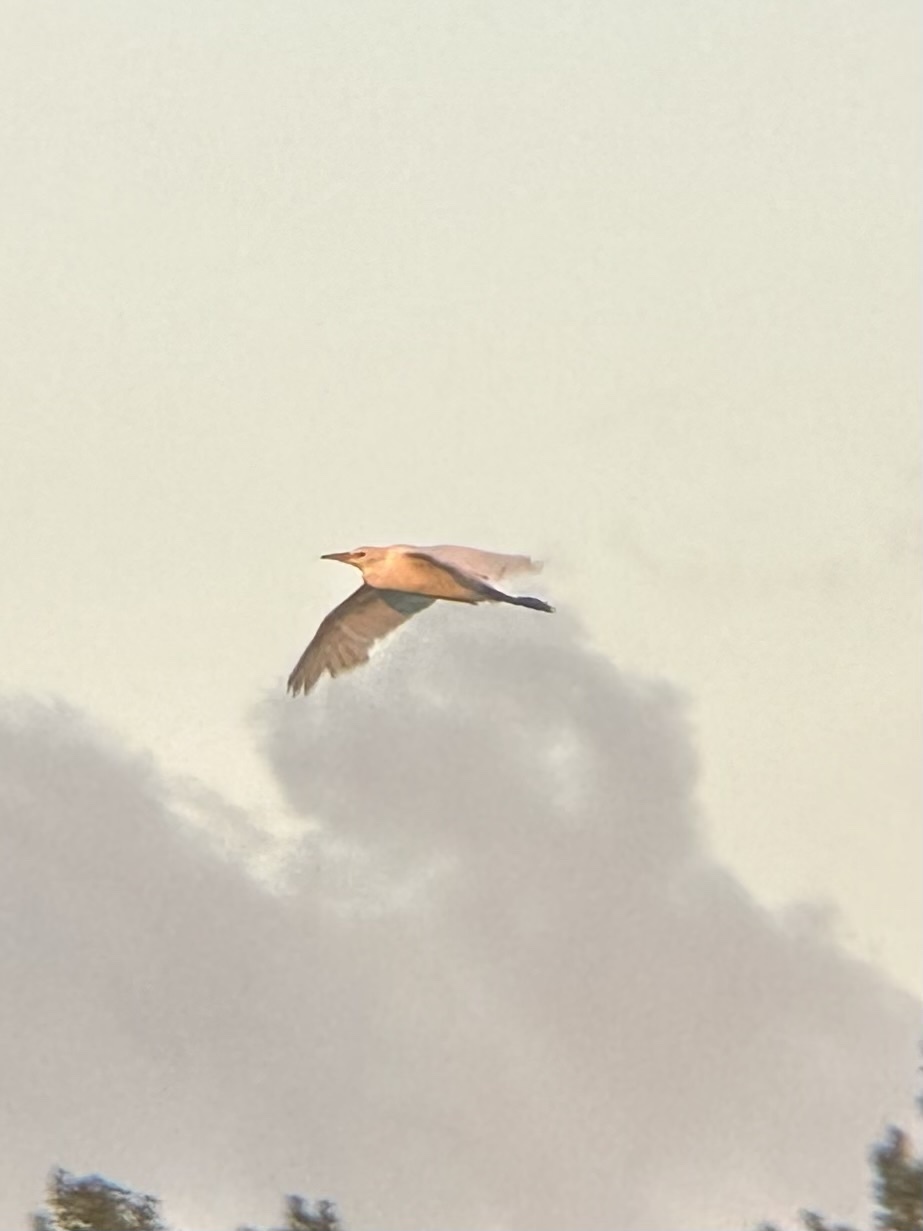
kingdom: Animalia
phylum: Chordata
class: Aves
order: Pelecaniformes
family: Ardeidae
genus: Bubulcus
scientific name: Bubulcus ibis
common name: Cattle egret
